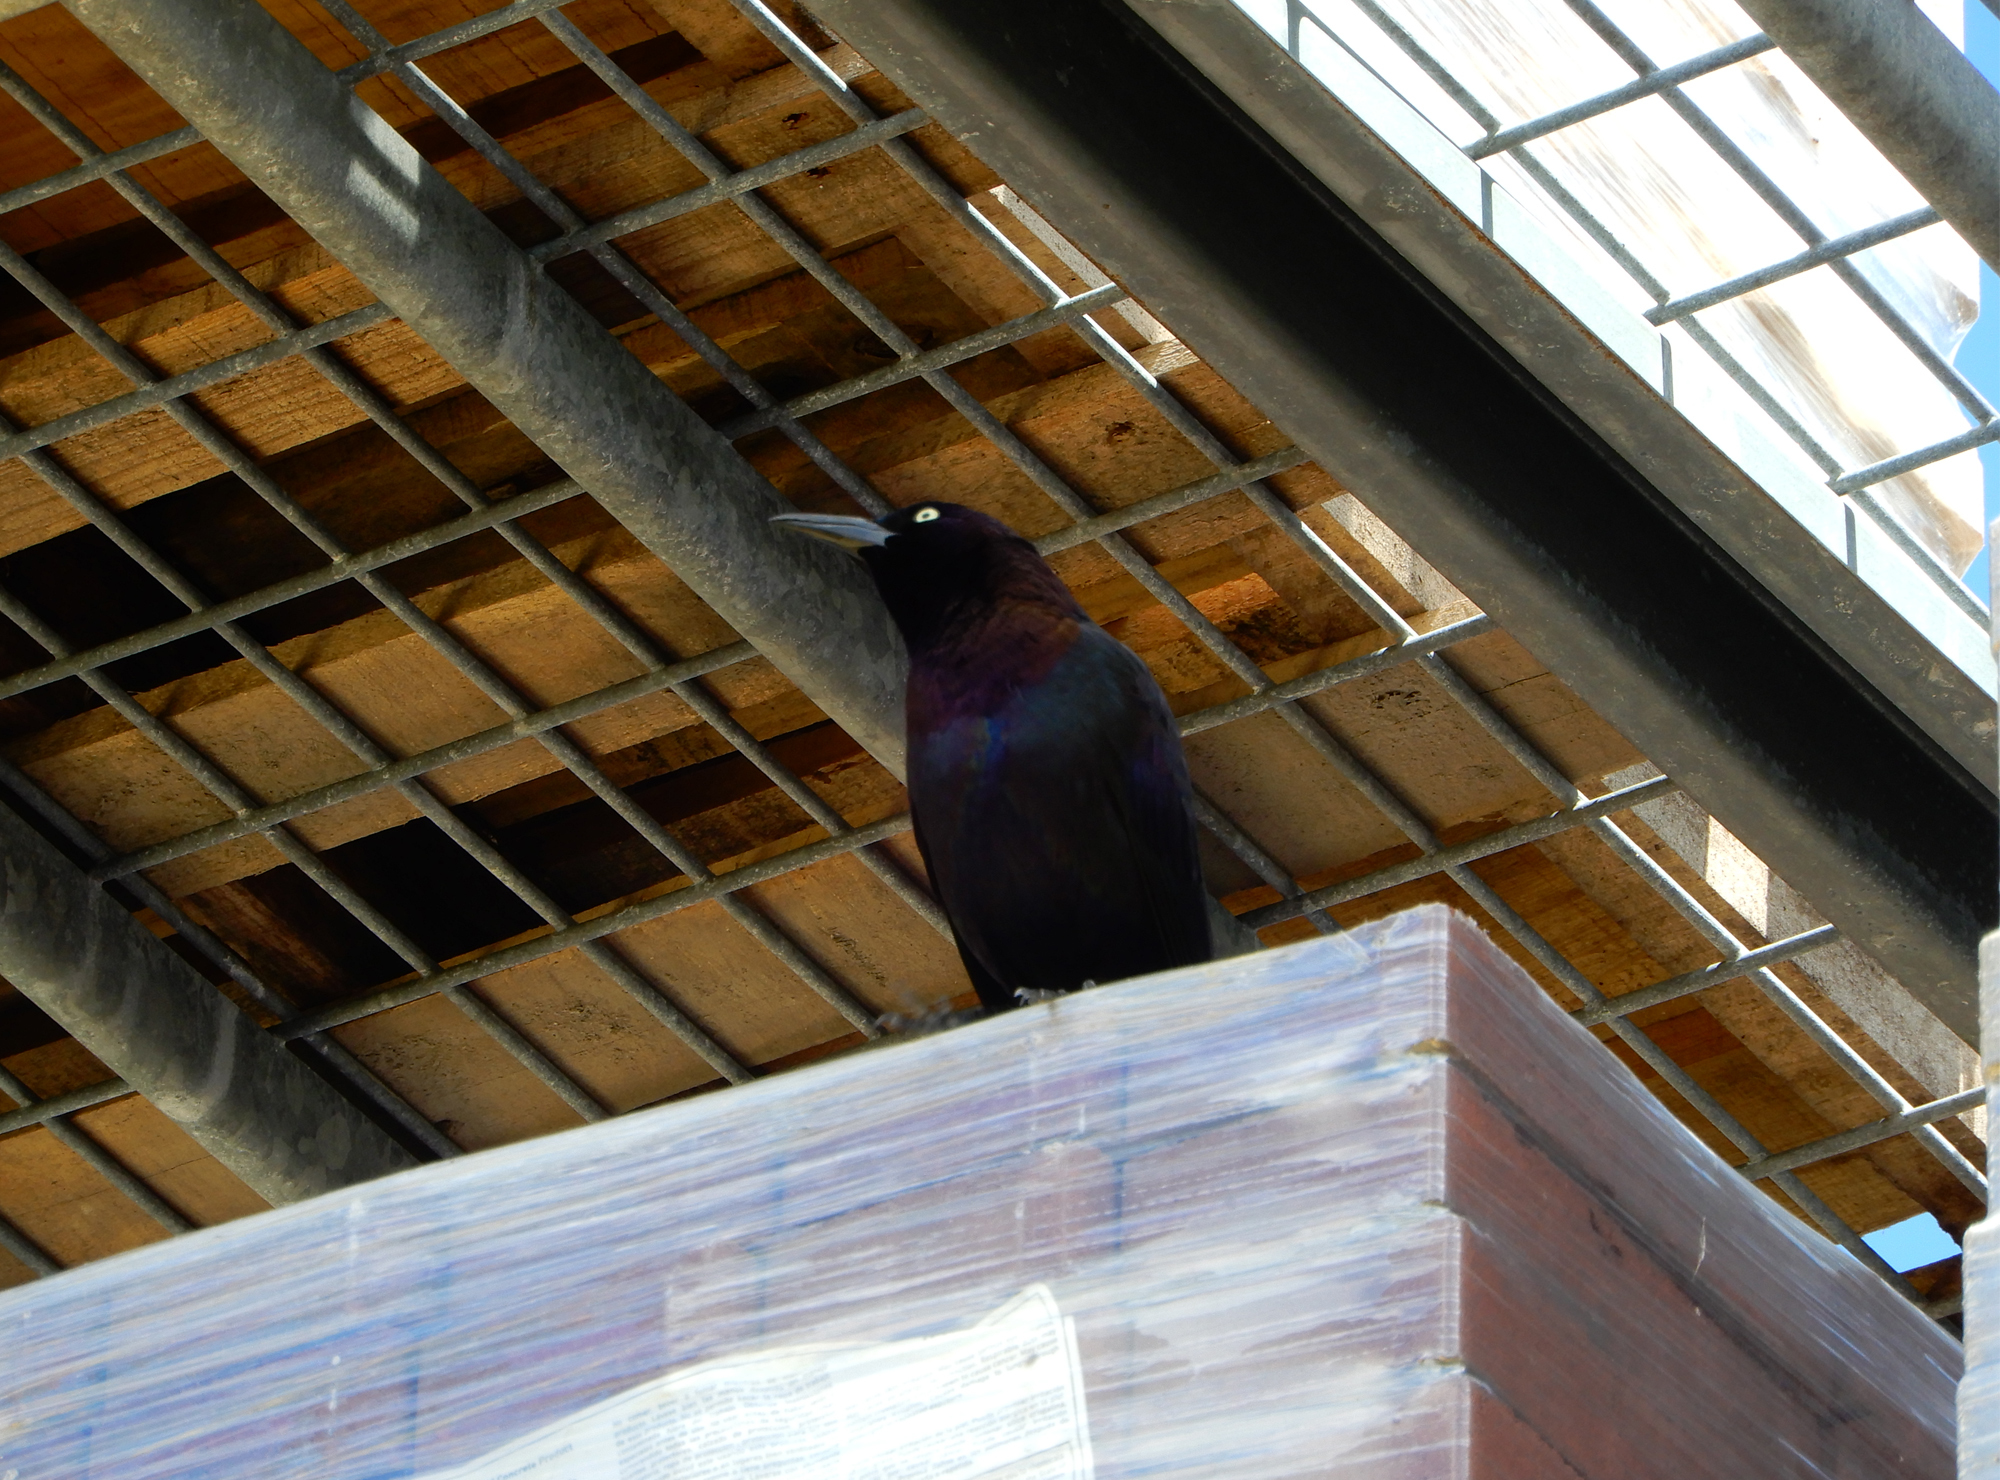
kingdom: Animalia
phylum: Chordata
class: Aves
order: Passeriformes
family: Icteridae
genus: Quiscalus
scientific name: Quiscalus quiscula
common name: Common grackle
